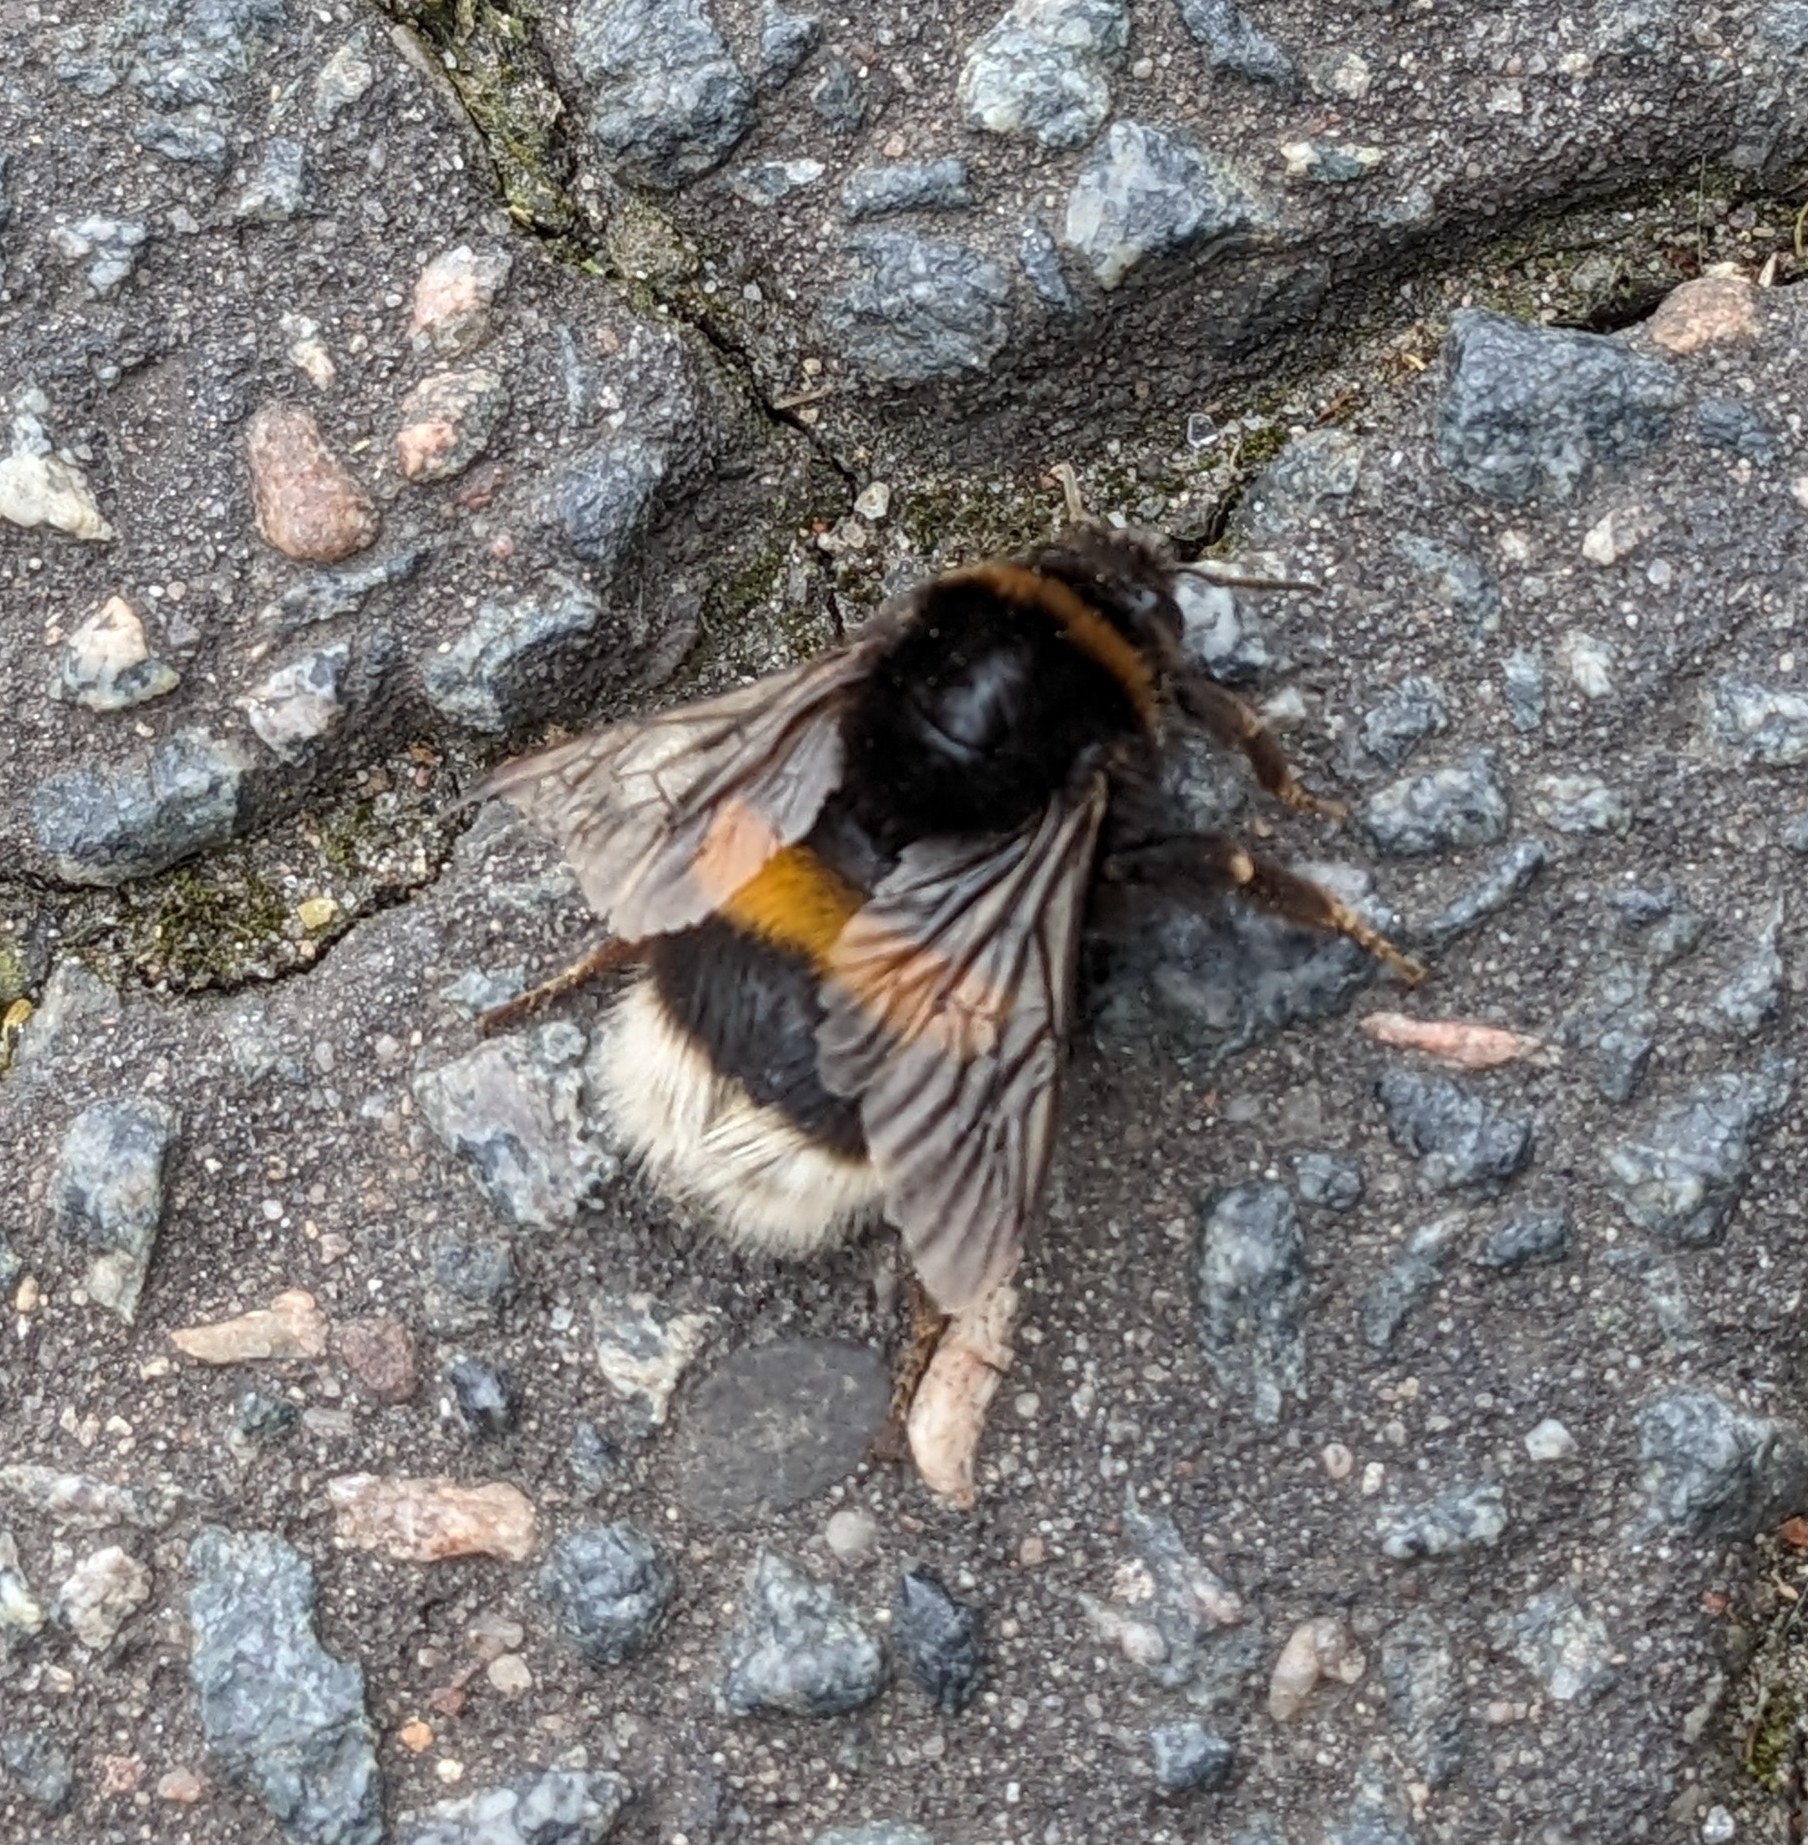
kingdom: Animalia
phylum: Arthropoda
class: Insecta
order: Hymenoptera
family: Apidae
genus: Bombus
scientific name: Bombus terrestris
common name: Buff-tailed bumblebee
